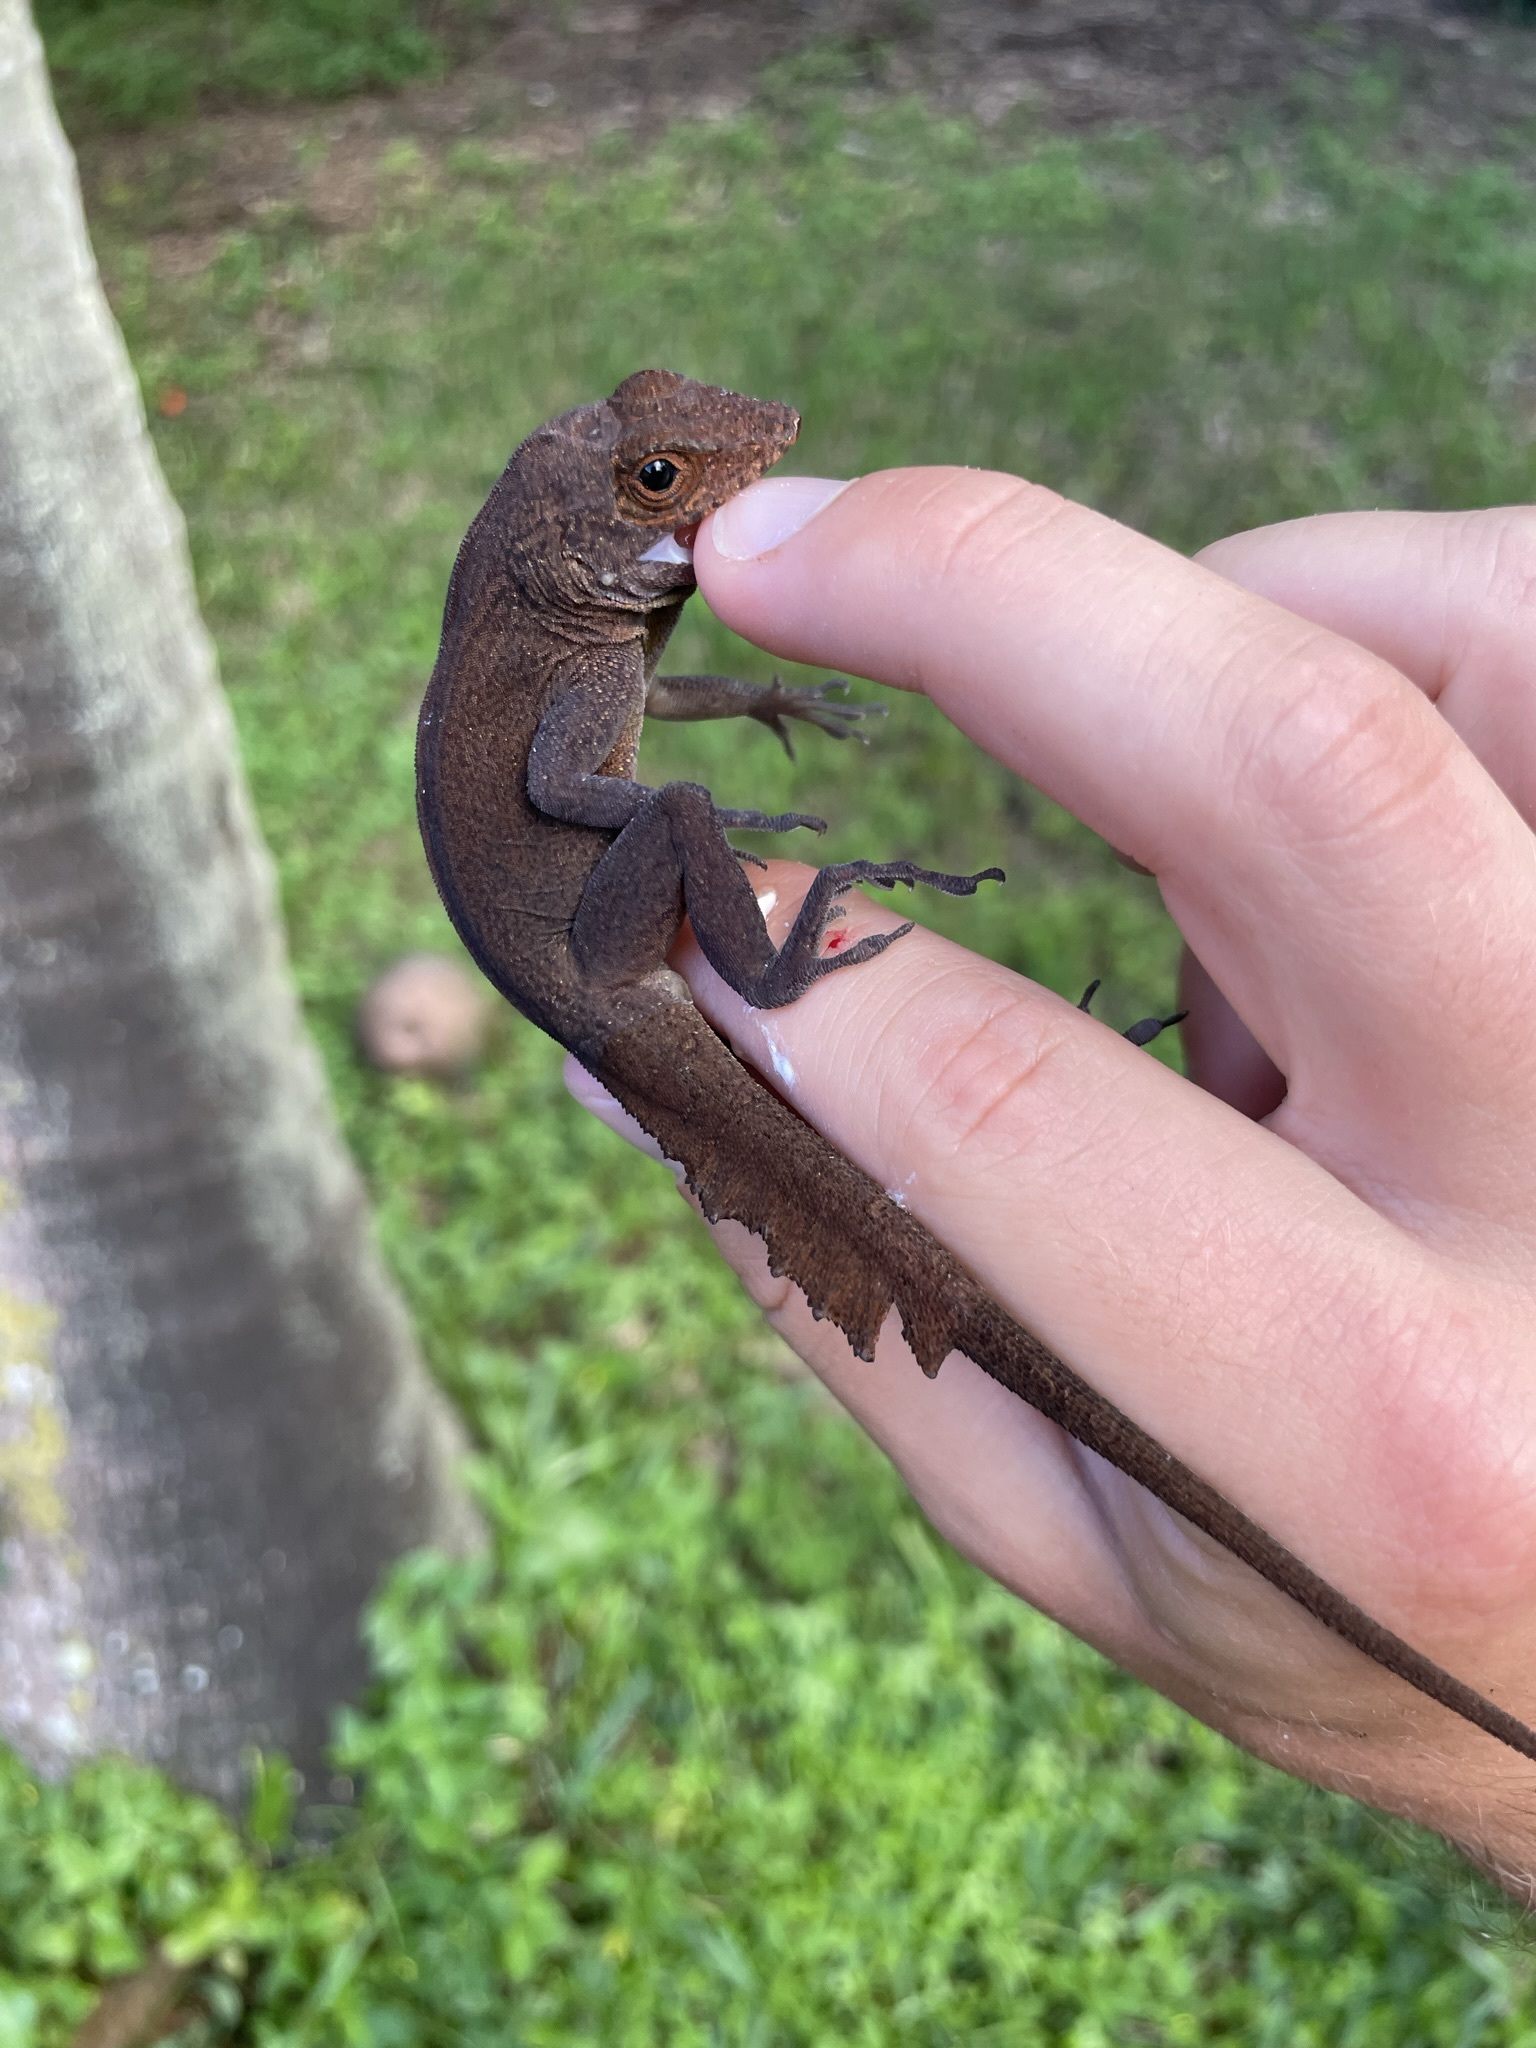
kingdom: Animalia
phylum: Chordata
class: Squamata
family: Dactyloidae
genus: Anolis
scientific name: Anolis cristatellus
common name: Crested anole
